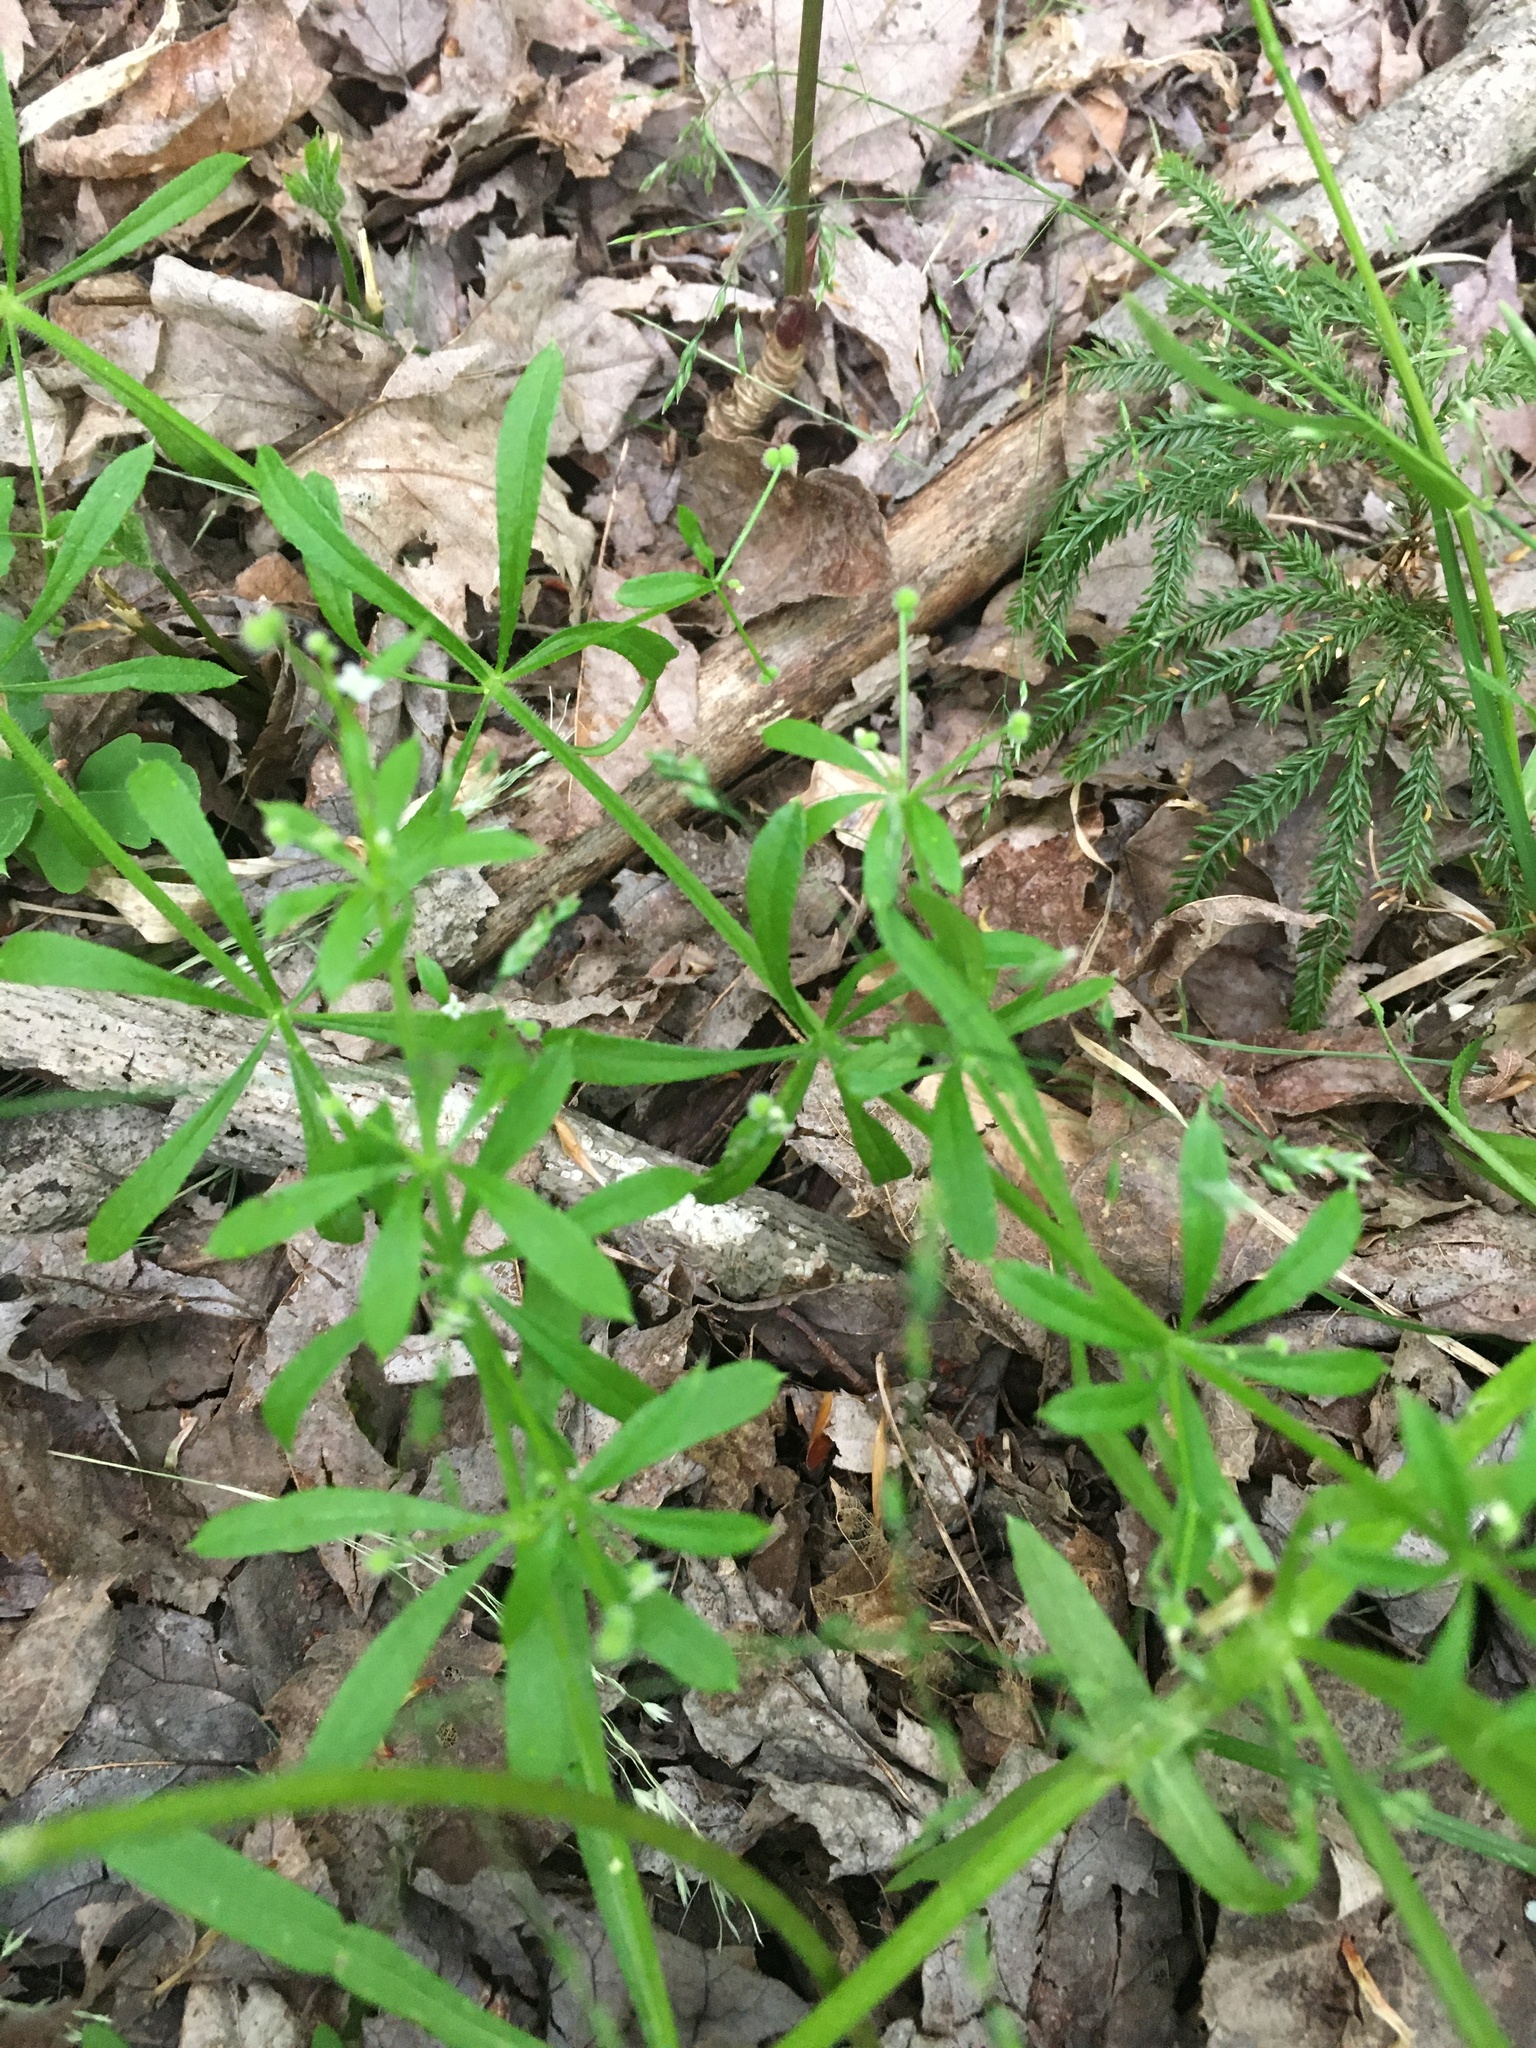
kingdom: Plantae
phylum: Tracheophyta
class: Magnoliopsida
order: Gentianales
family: Rubiaceae
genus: Galium
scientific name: Galium aparine
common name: Cleavers
